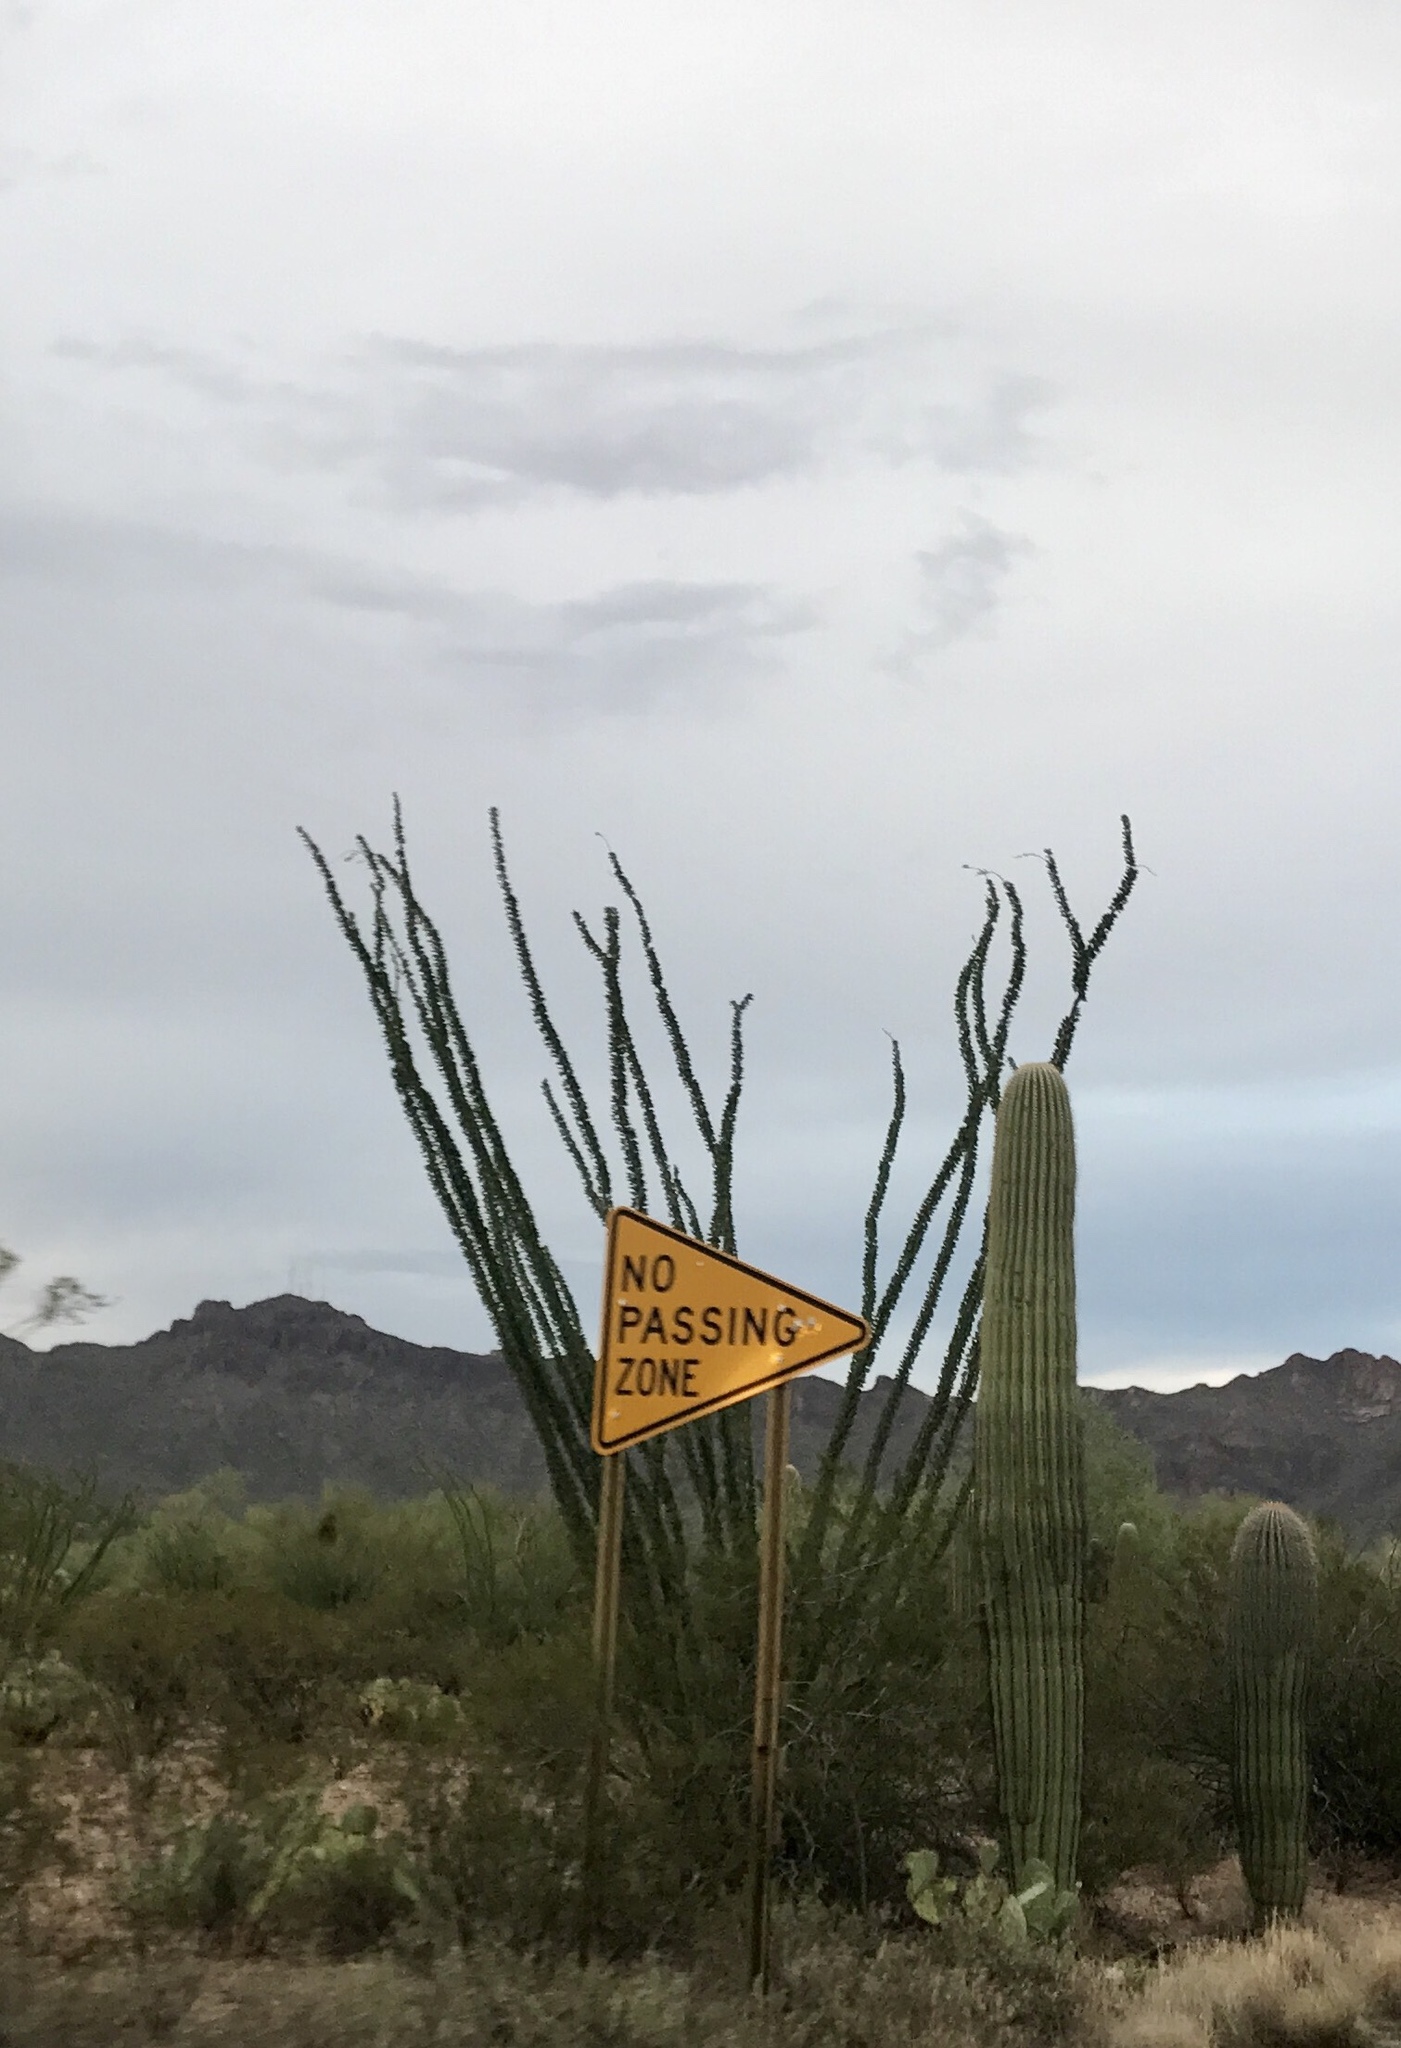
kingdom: Plantae
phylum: Tracheophyta
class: Magnoliopsida
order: Caryophyllales
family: Cactaceae
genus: Carnegiea
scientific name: Carnegiea gigantea
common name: Saguaro
